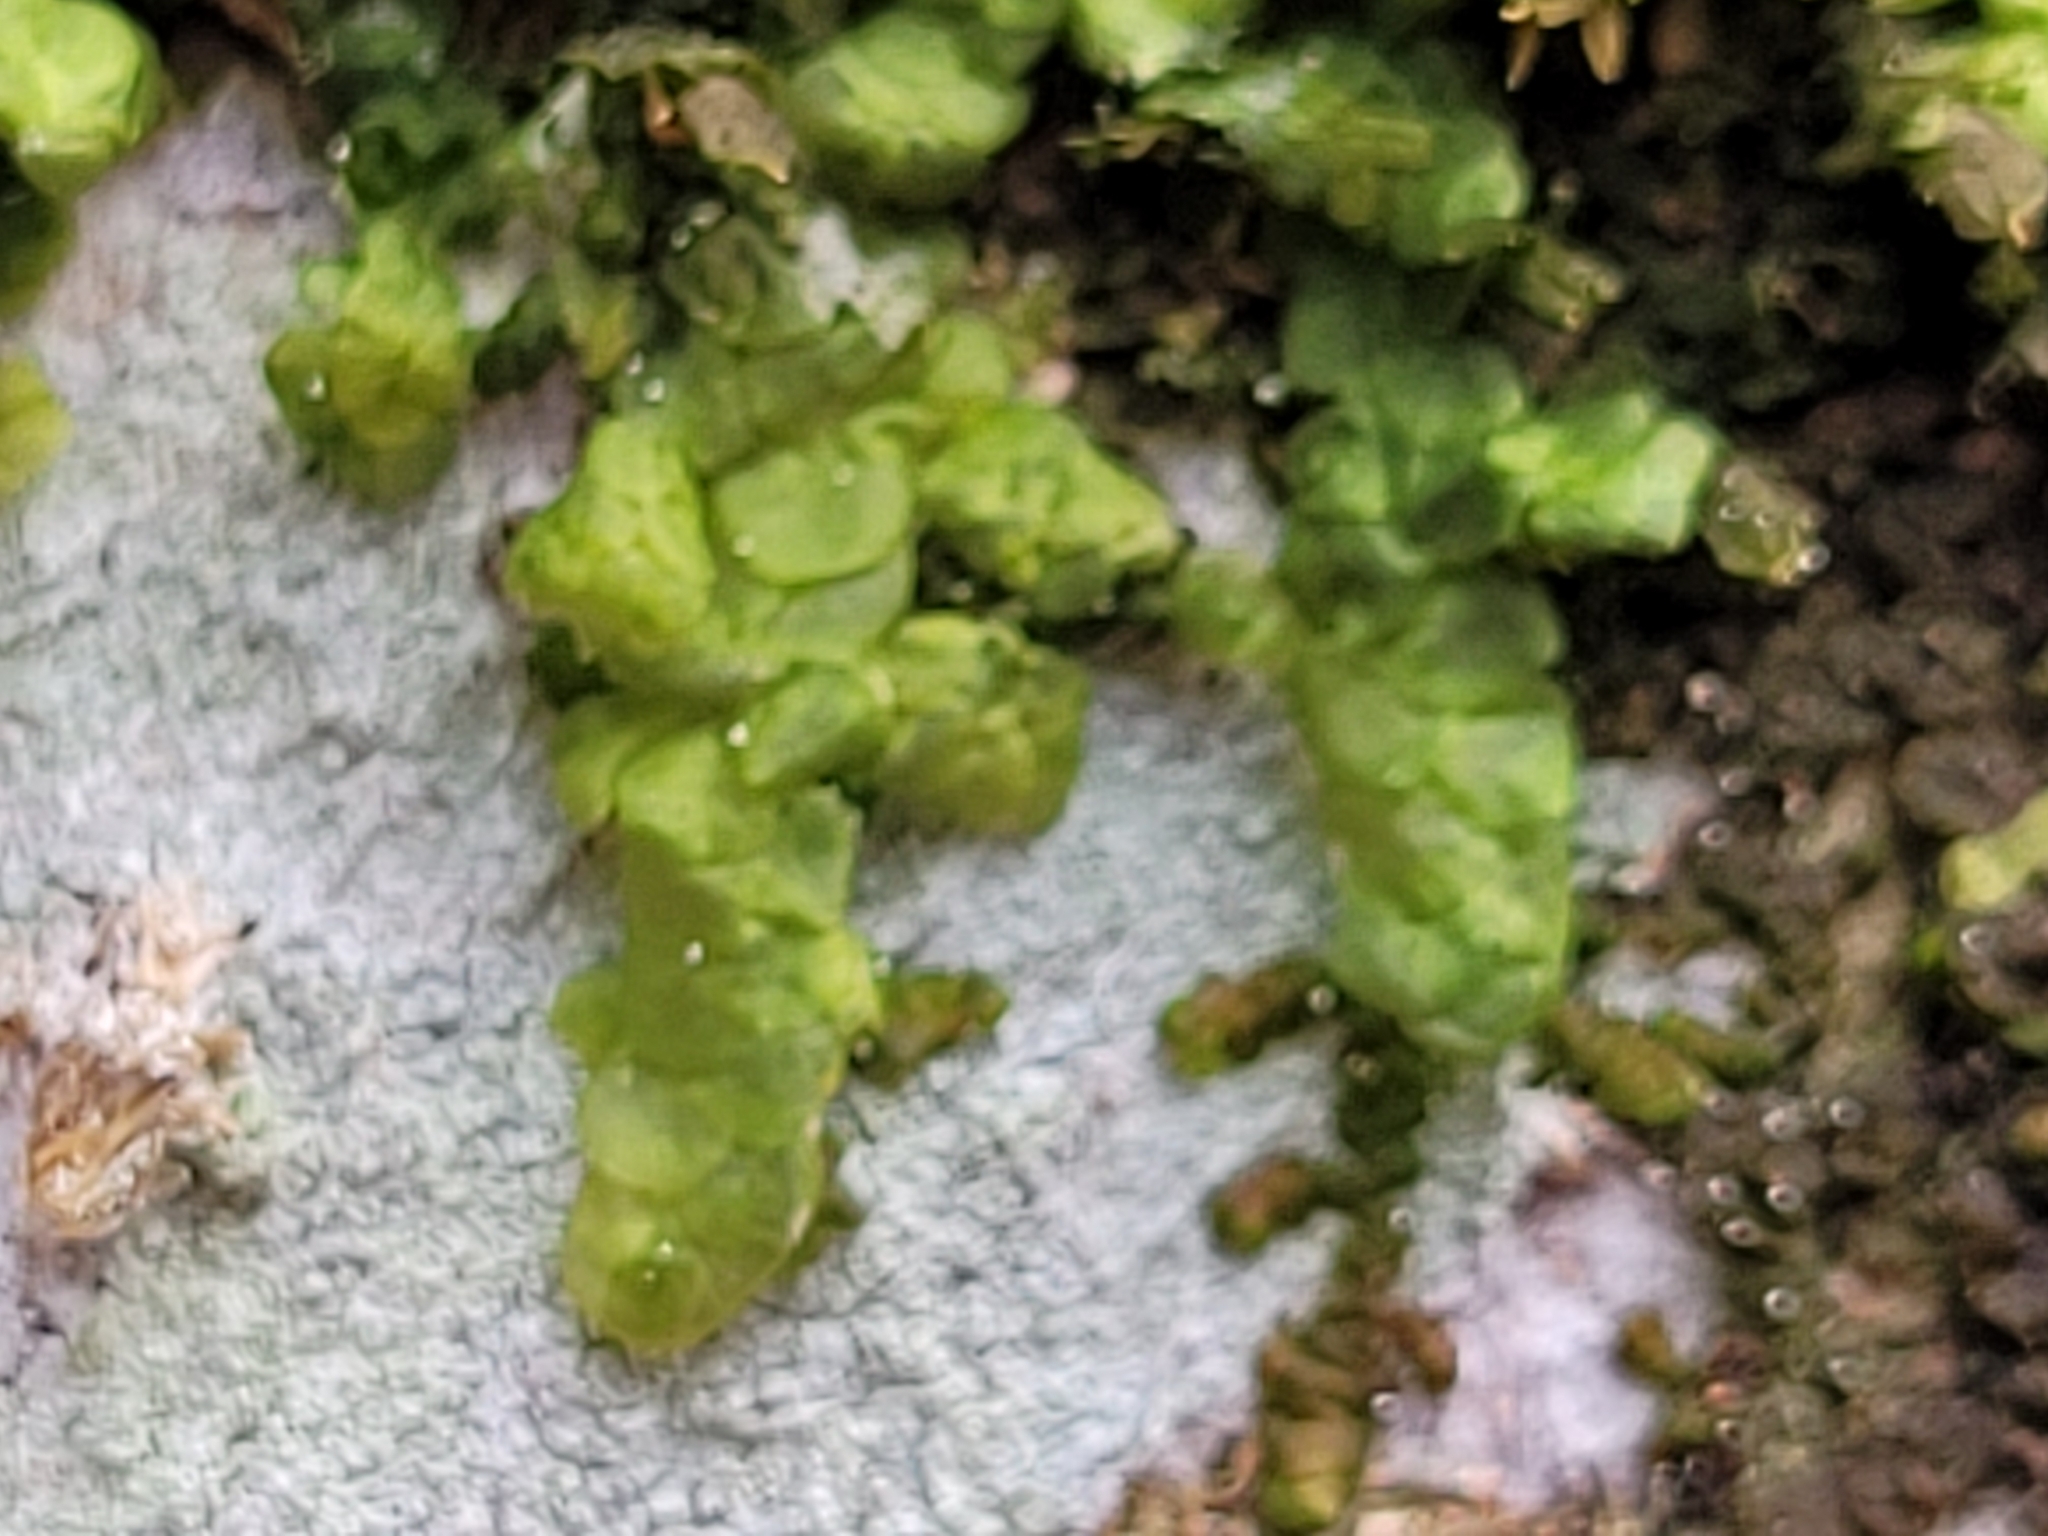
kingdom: Plantae
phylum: Marchantiophyta
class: Jungermanniopsida
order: Porellales
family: Radulaceae
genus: Radula
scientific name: Radula complanata
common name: Flat-leaved scalewort
